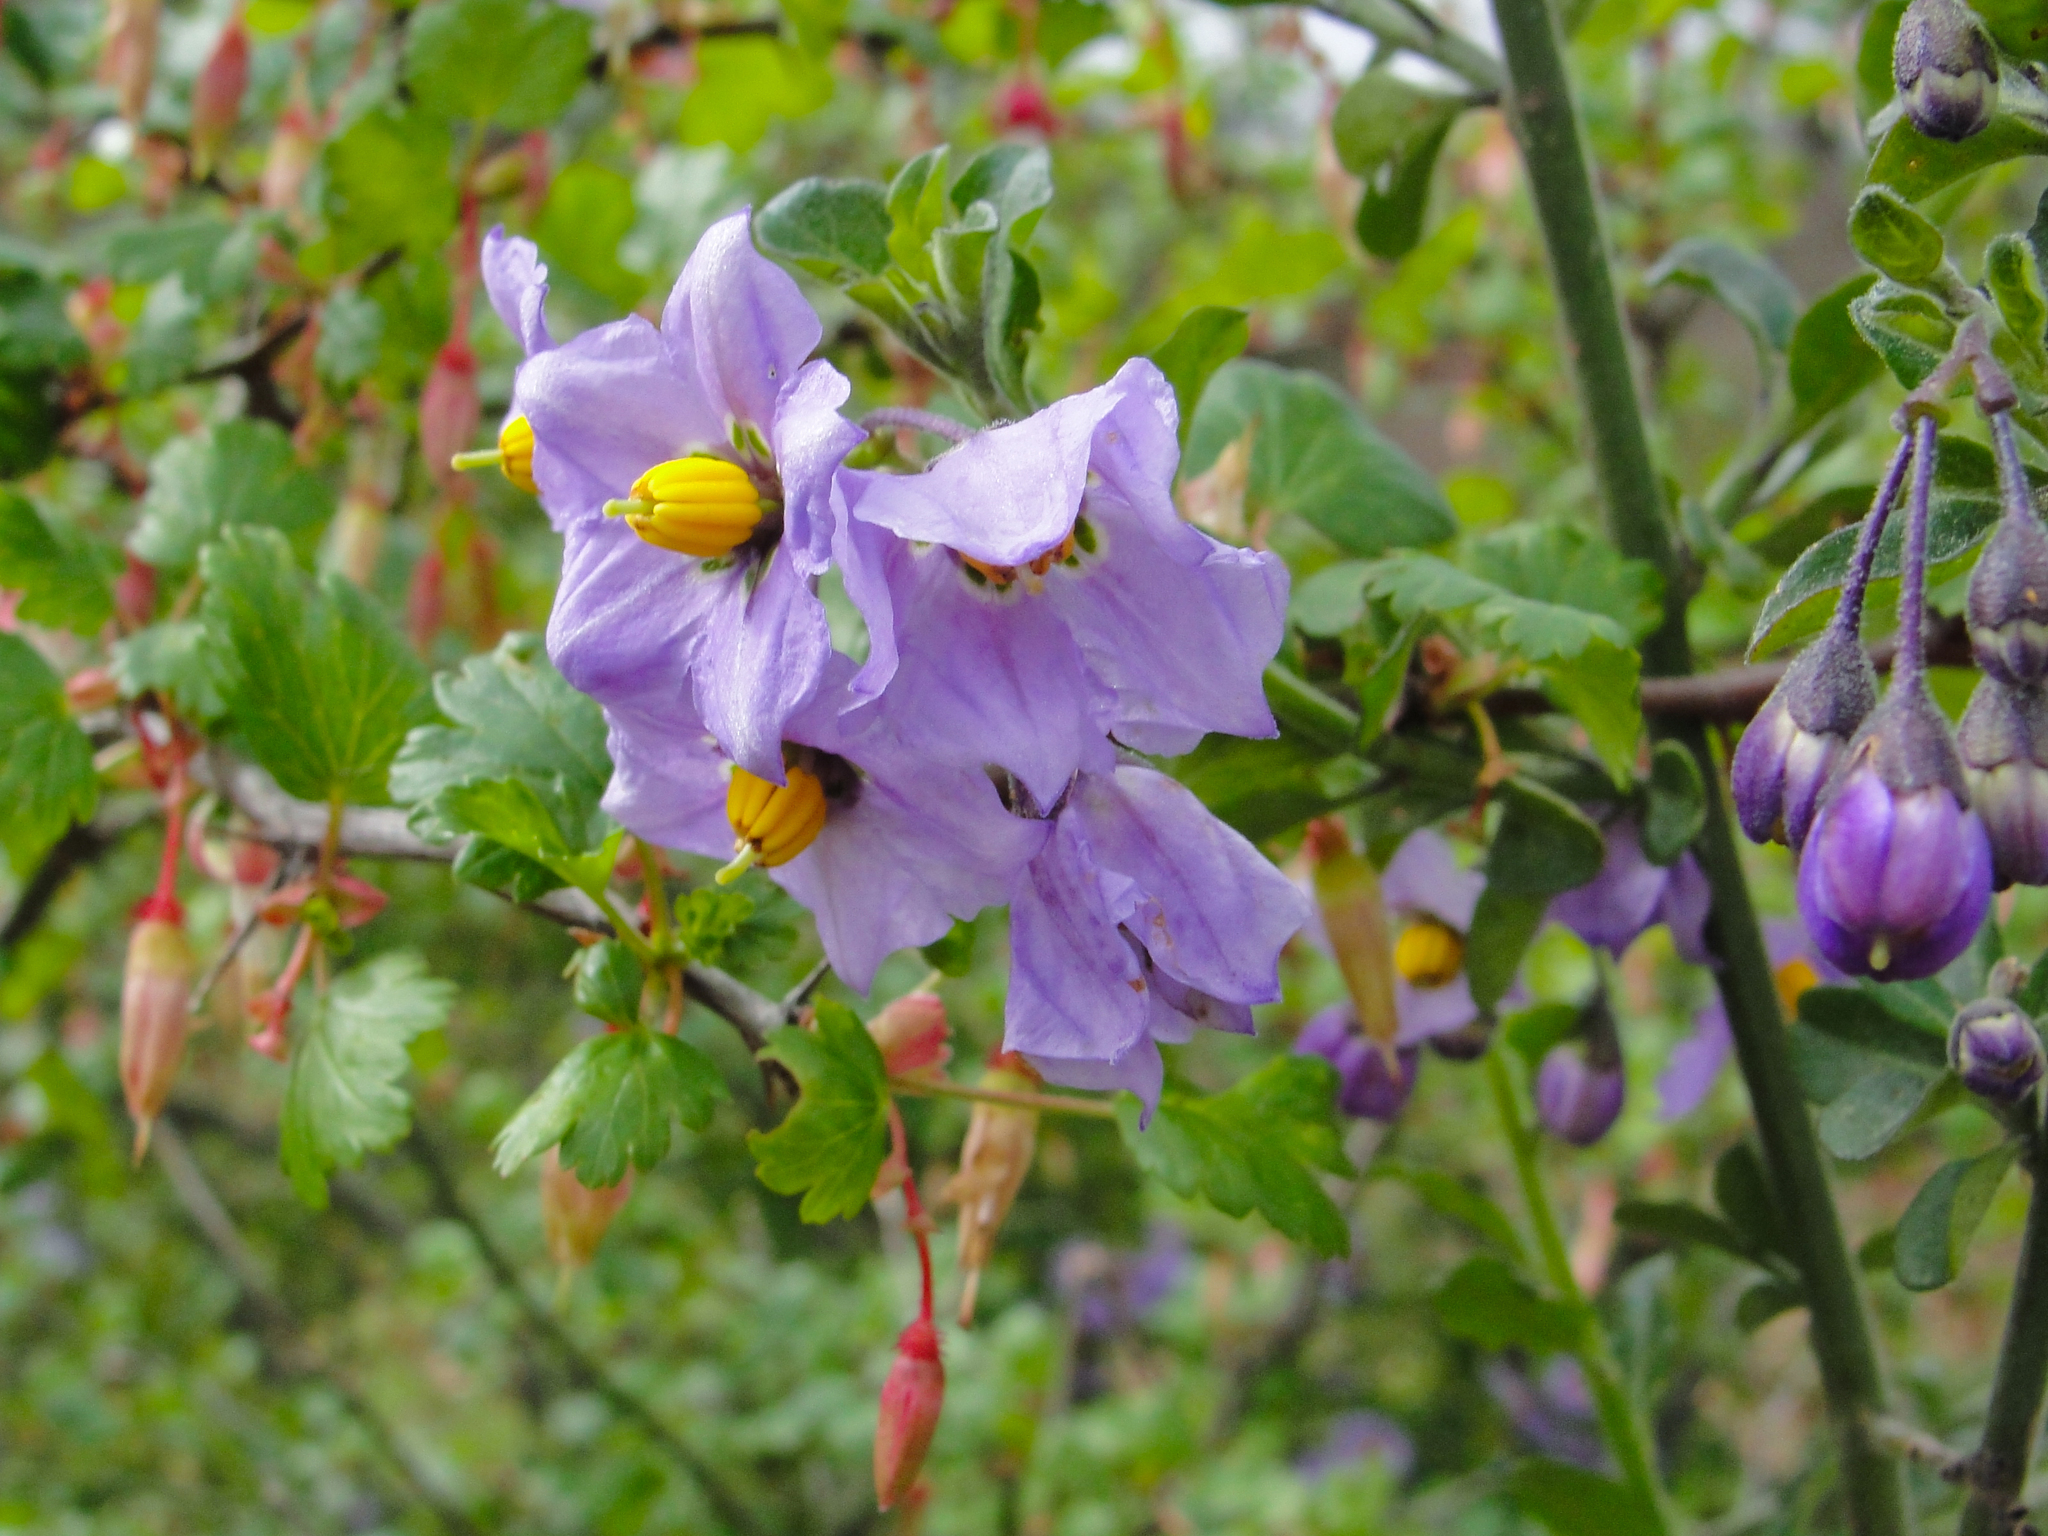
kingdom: Plantae
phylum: Tracheophyta
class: Magnoliopsida
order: Solanales
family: Solanaceae
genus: Solanum
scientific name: Solanum umbelliferum
